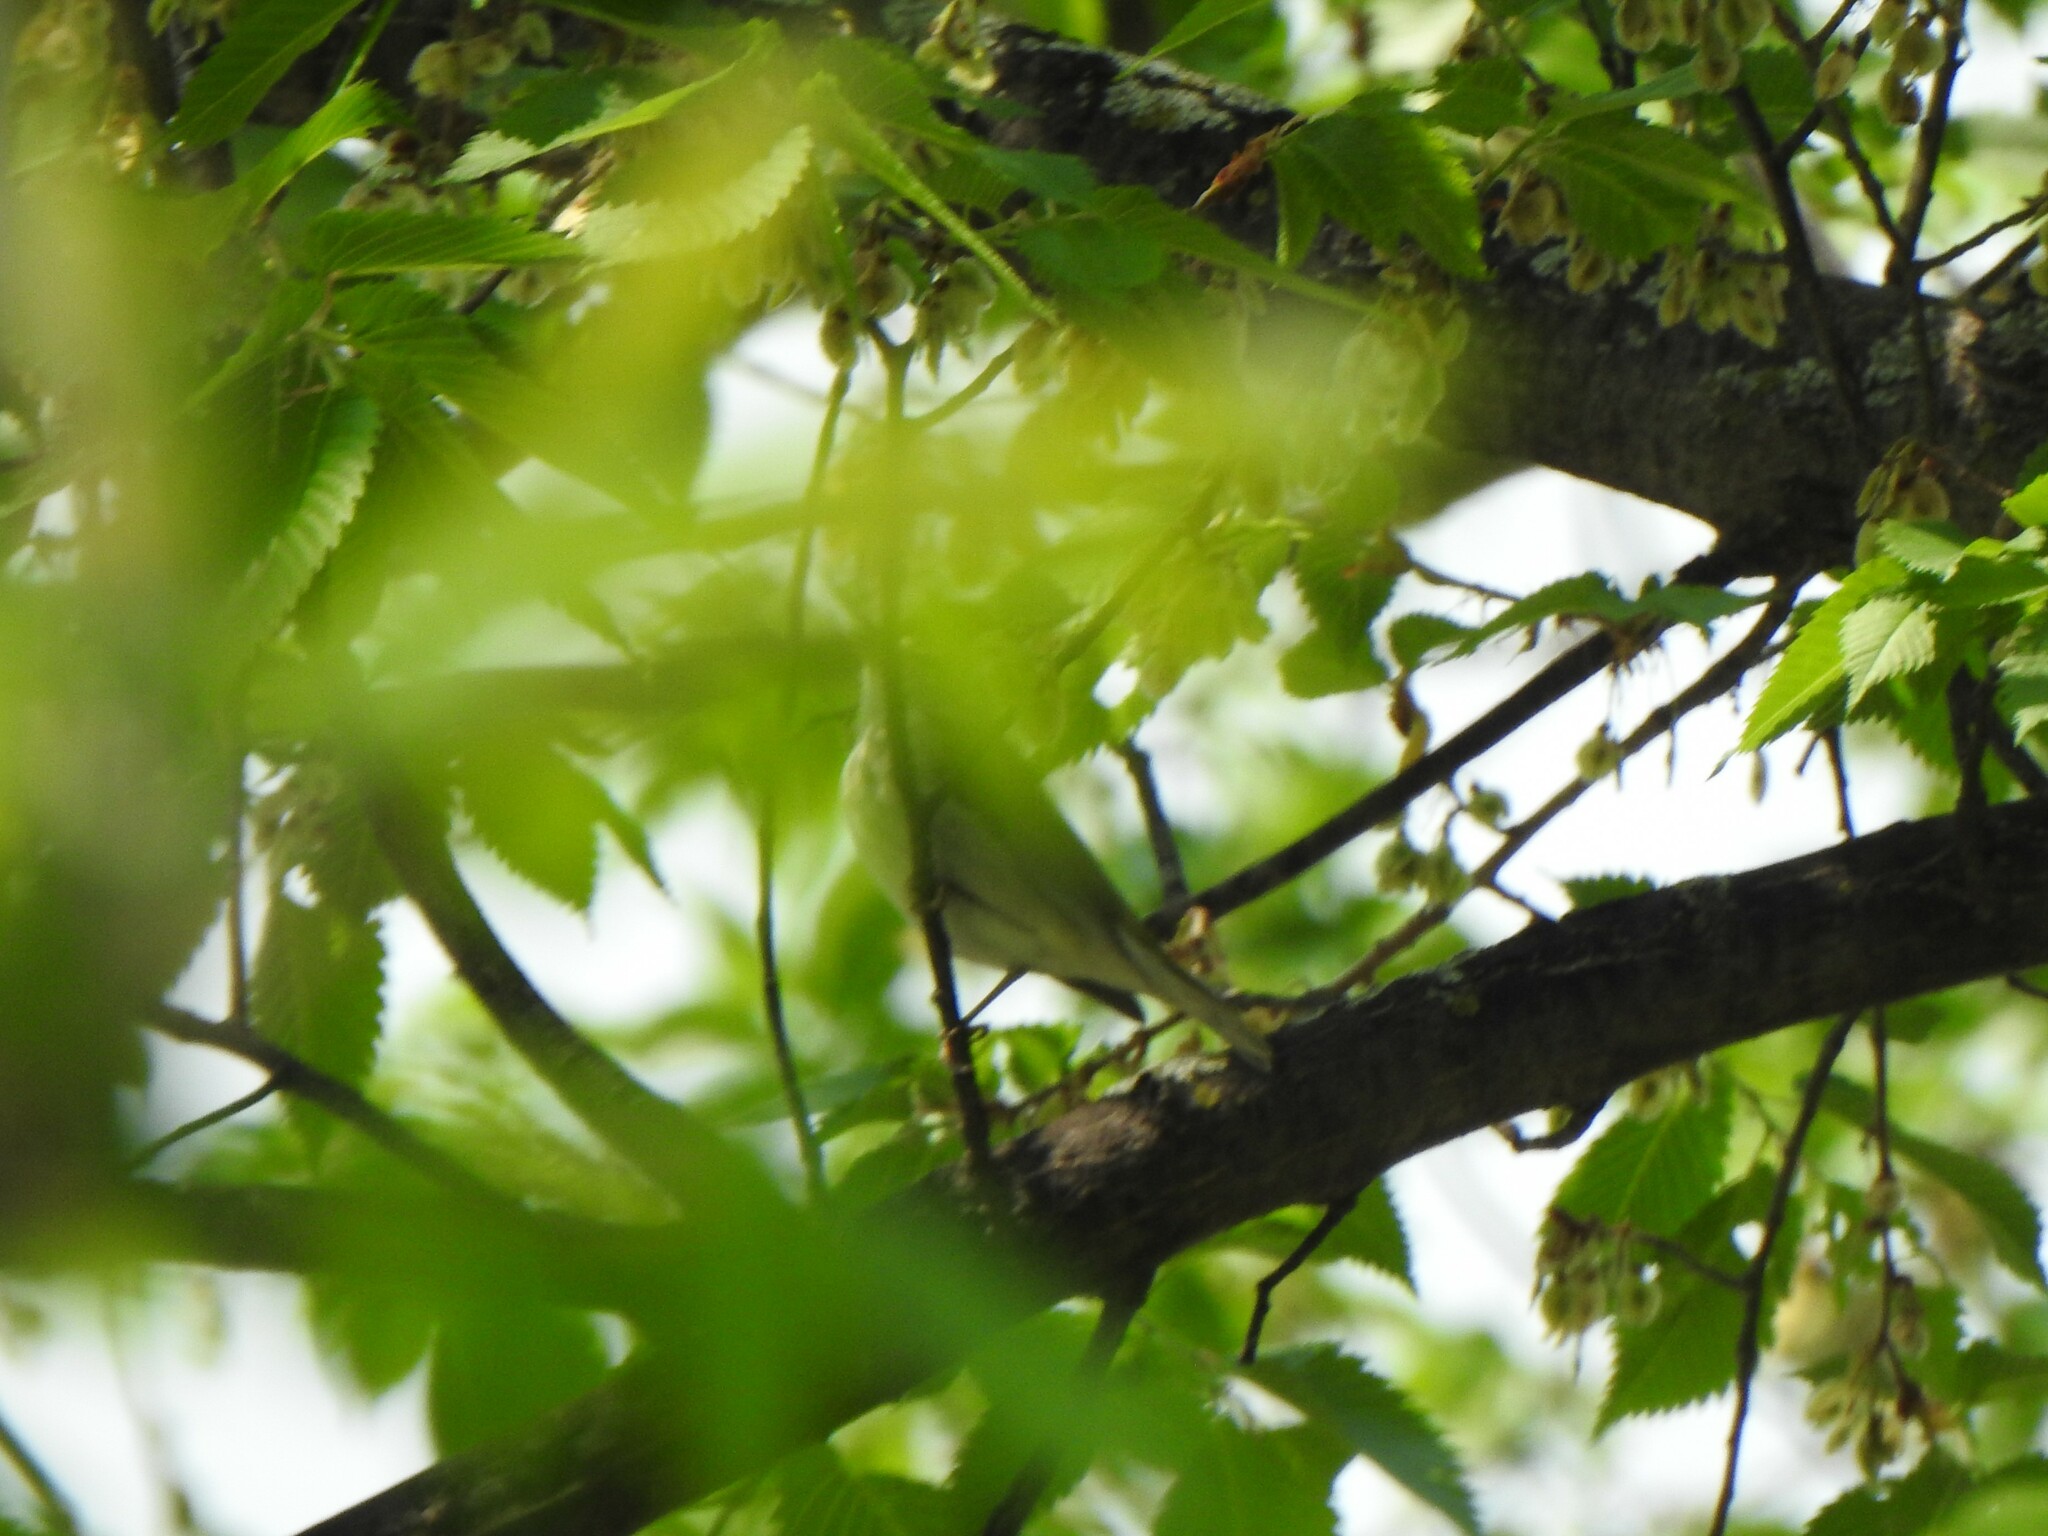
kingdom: Animalia
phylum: Chordata
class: Aves
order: Passeriformes
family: Parulidae
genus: Leiothlypis
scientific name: Leiothlypis peregrina
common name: Tennessee warbler
